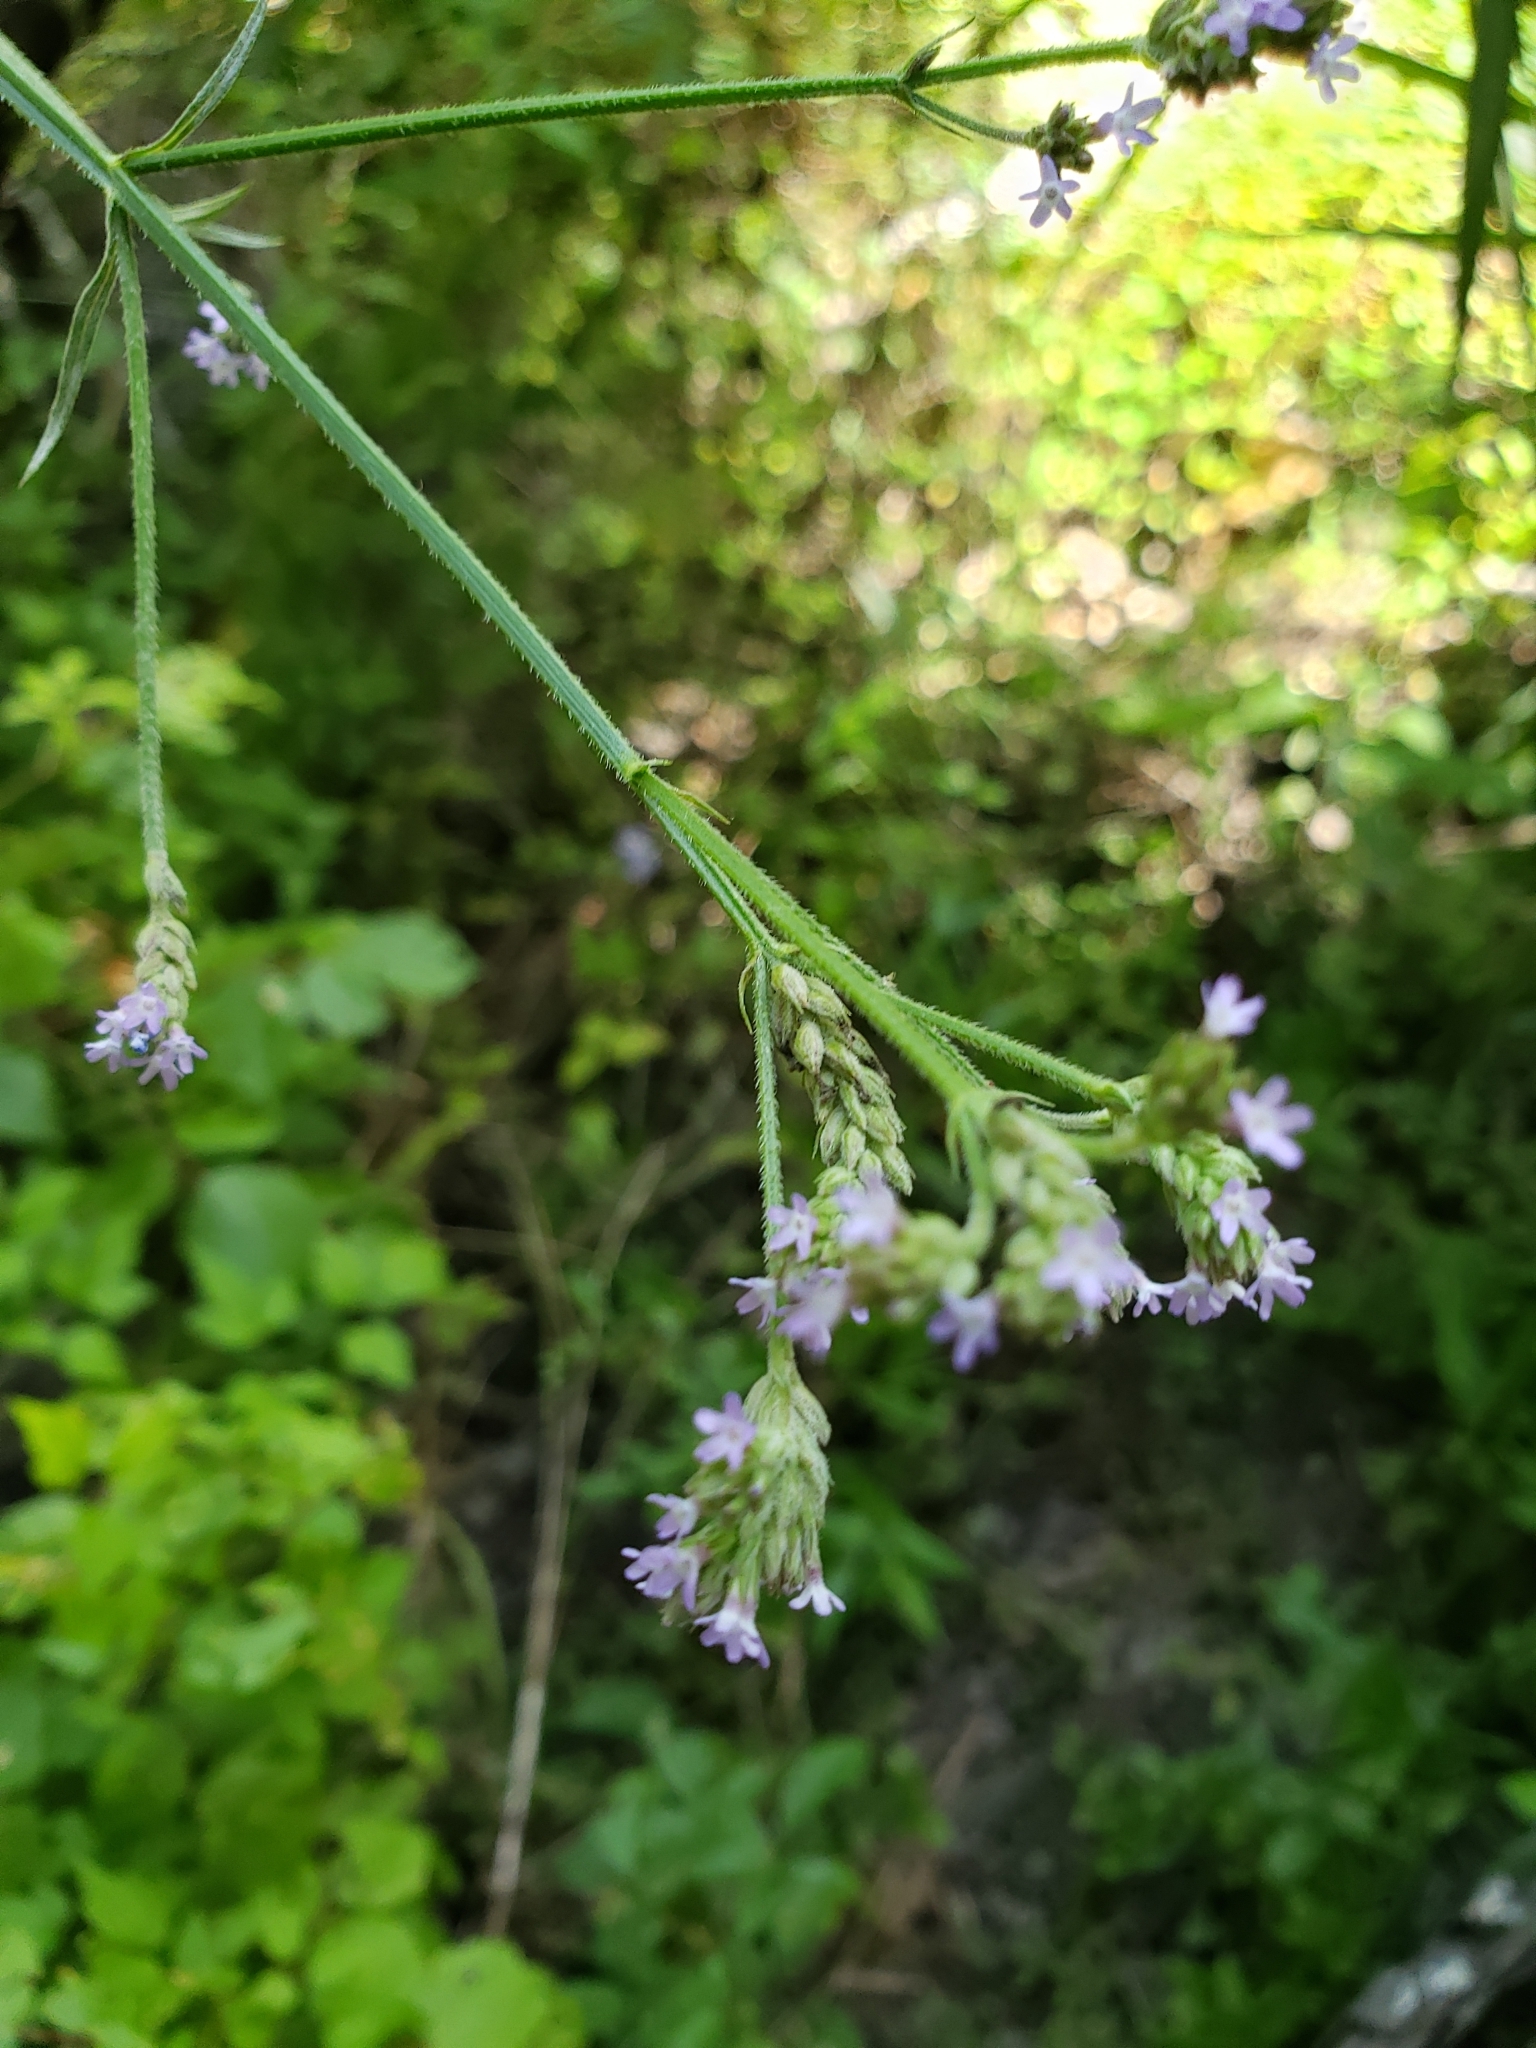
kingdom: Plantae
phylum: Tracheophyta
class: Magnoliopsida
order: Lamiales
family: Verbenaceae
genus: Verbena
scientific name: Verbena brasiliensis
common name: Brazilian vervain
